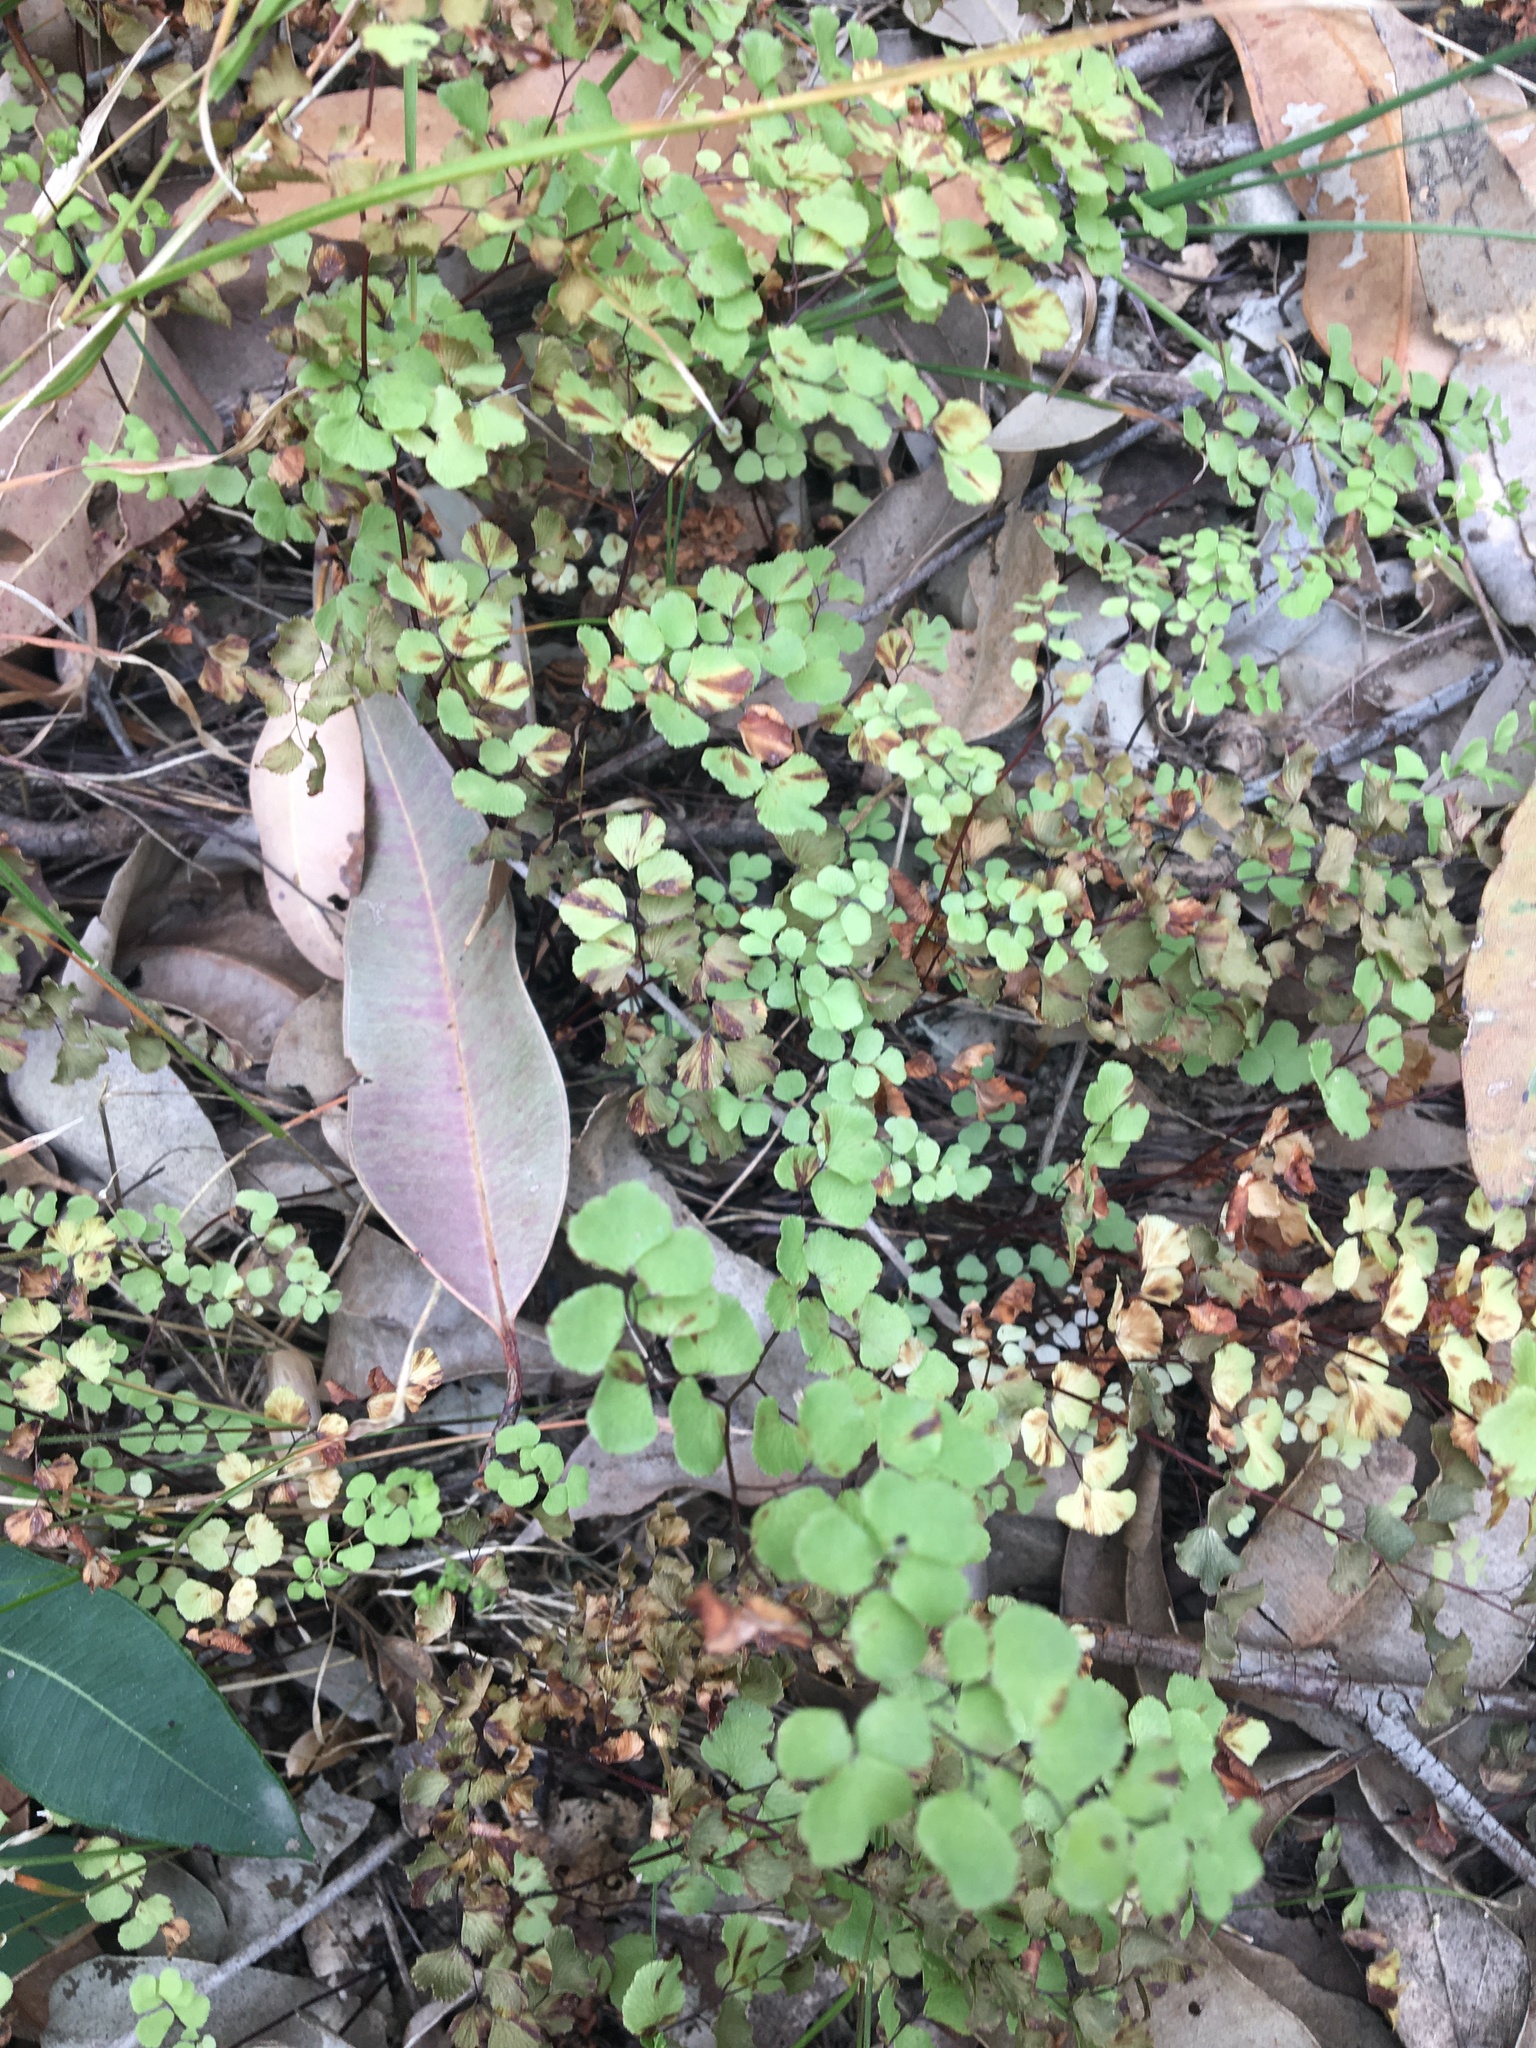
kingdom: Plantae
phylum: Tracheophyta
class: Polypodiopsida
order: Polypodiales
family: Pteridaceae
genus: Adiantum
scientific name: Adiantum aethiopicum
